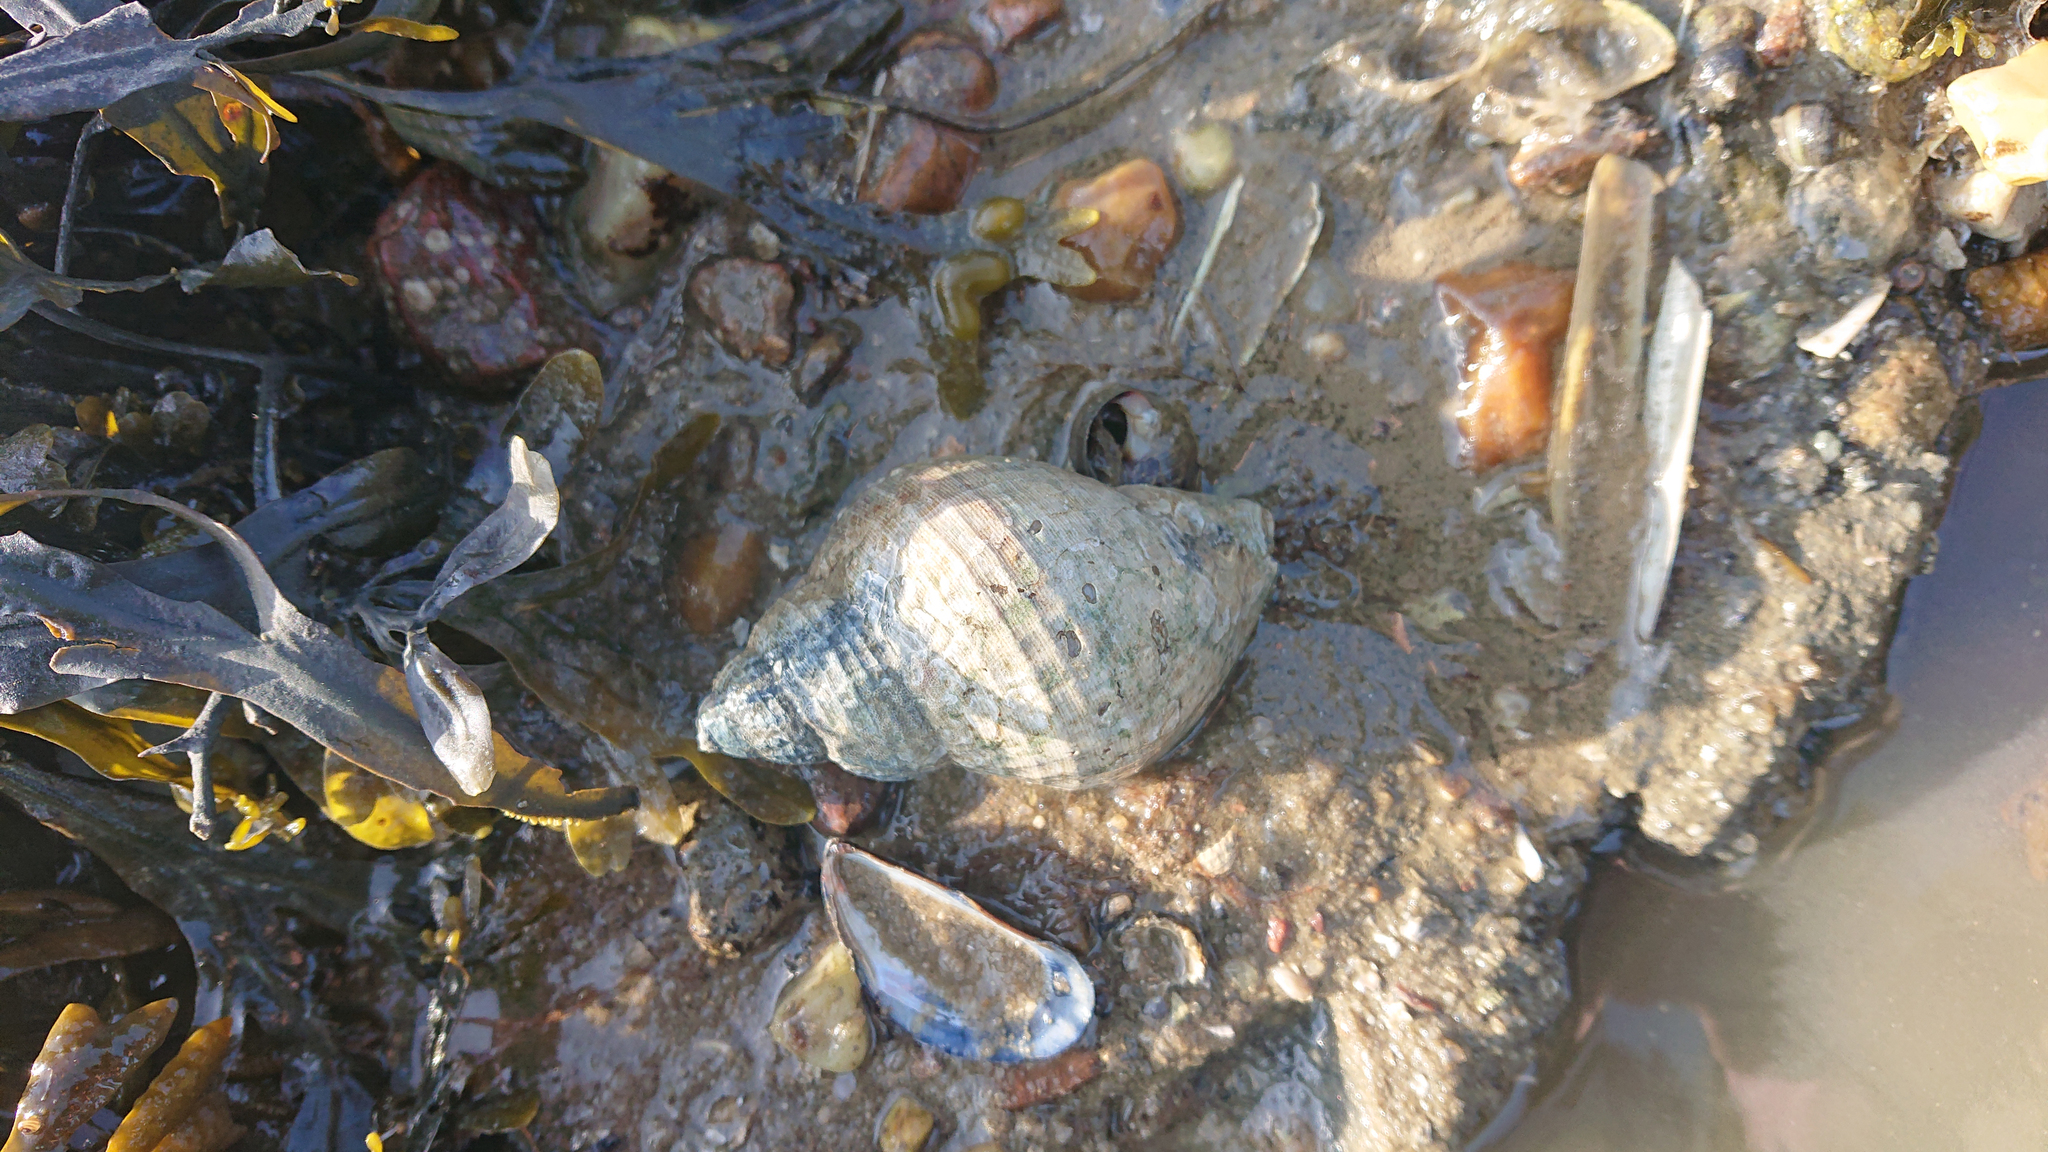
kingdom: Animalia
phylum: Mollusca
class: Gastropoda
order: Neogastropoda
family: Buccinidae
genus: Buccinum
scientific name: Buccinum undatum
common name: Common whelk
